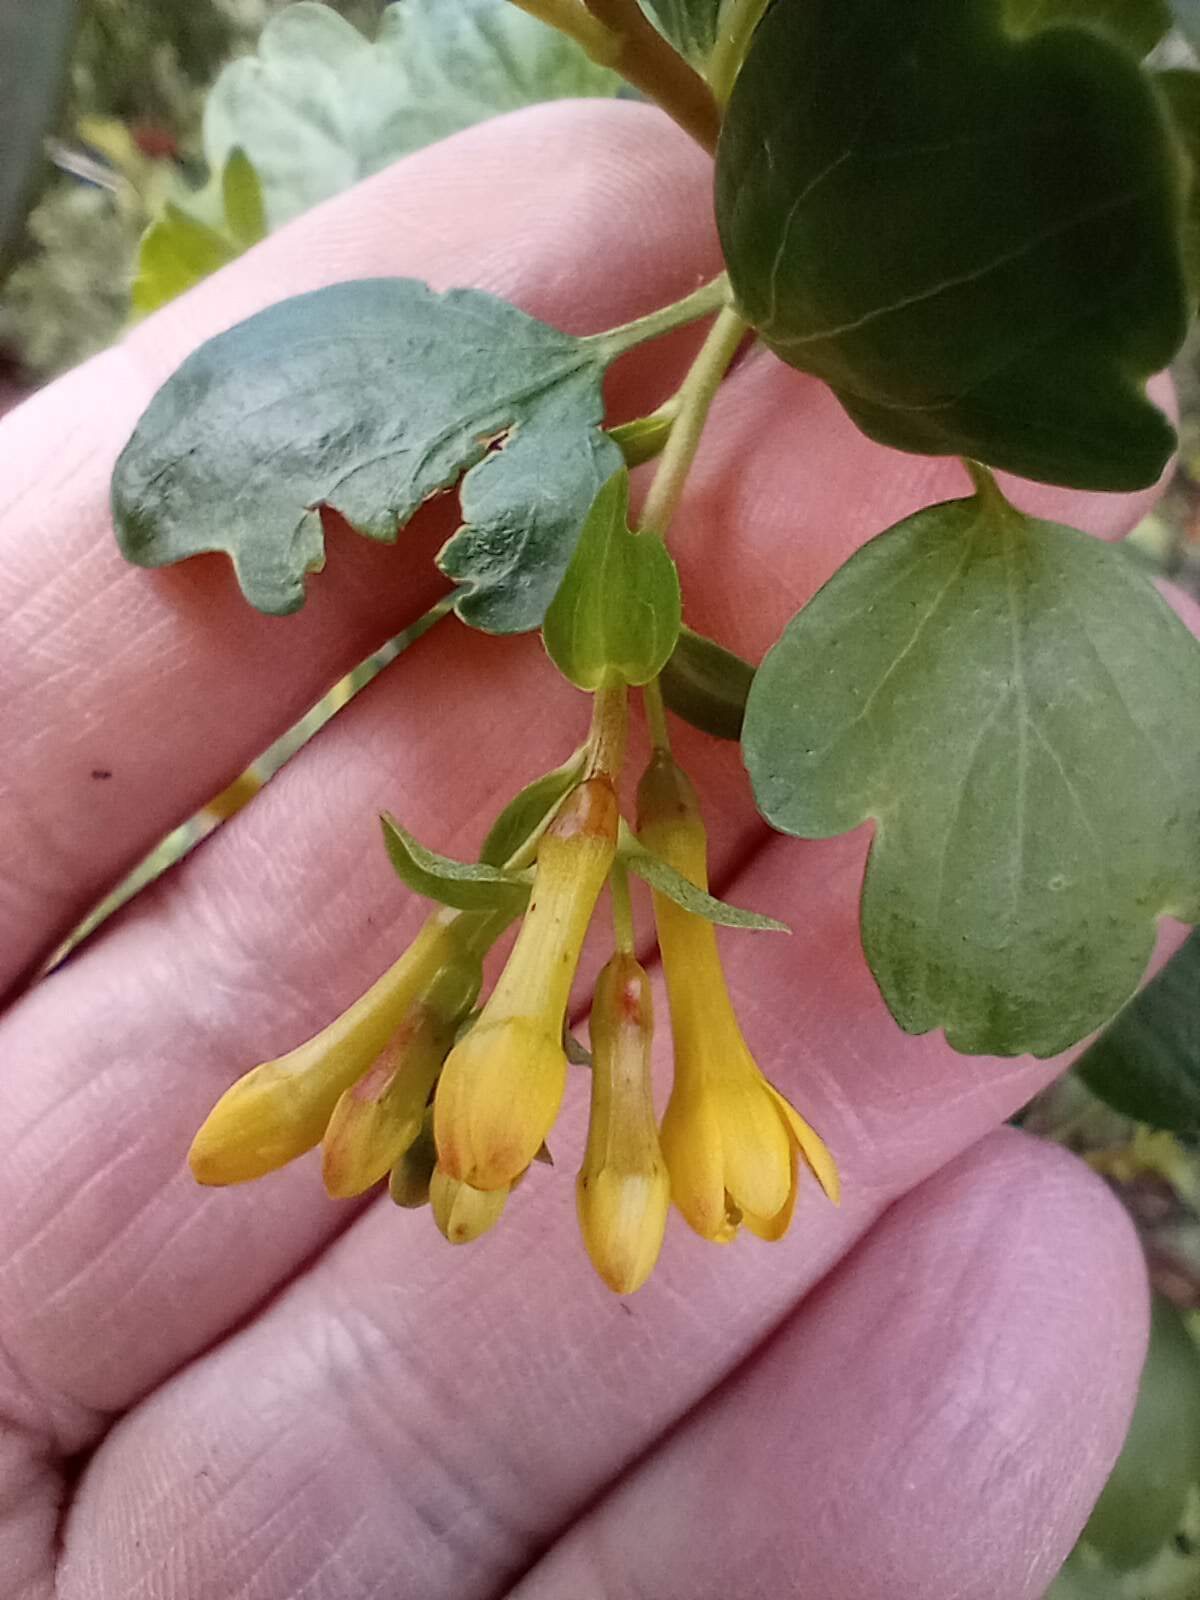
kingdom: Plantae
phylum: Tracheophyta
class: Magnoliopsida
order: Saxifragales
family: Grossulariaceae
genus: Ribes
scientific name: Ribes aureum
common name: Golden currant
